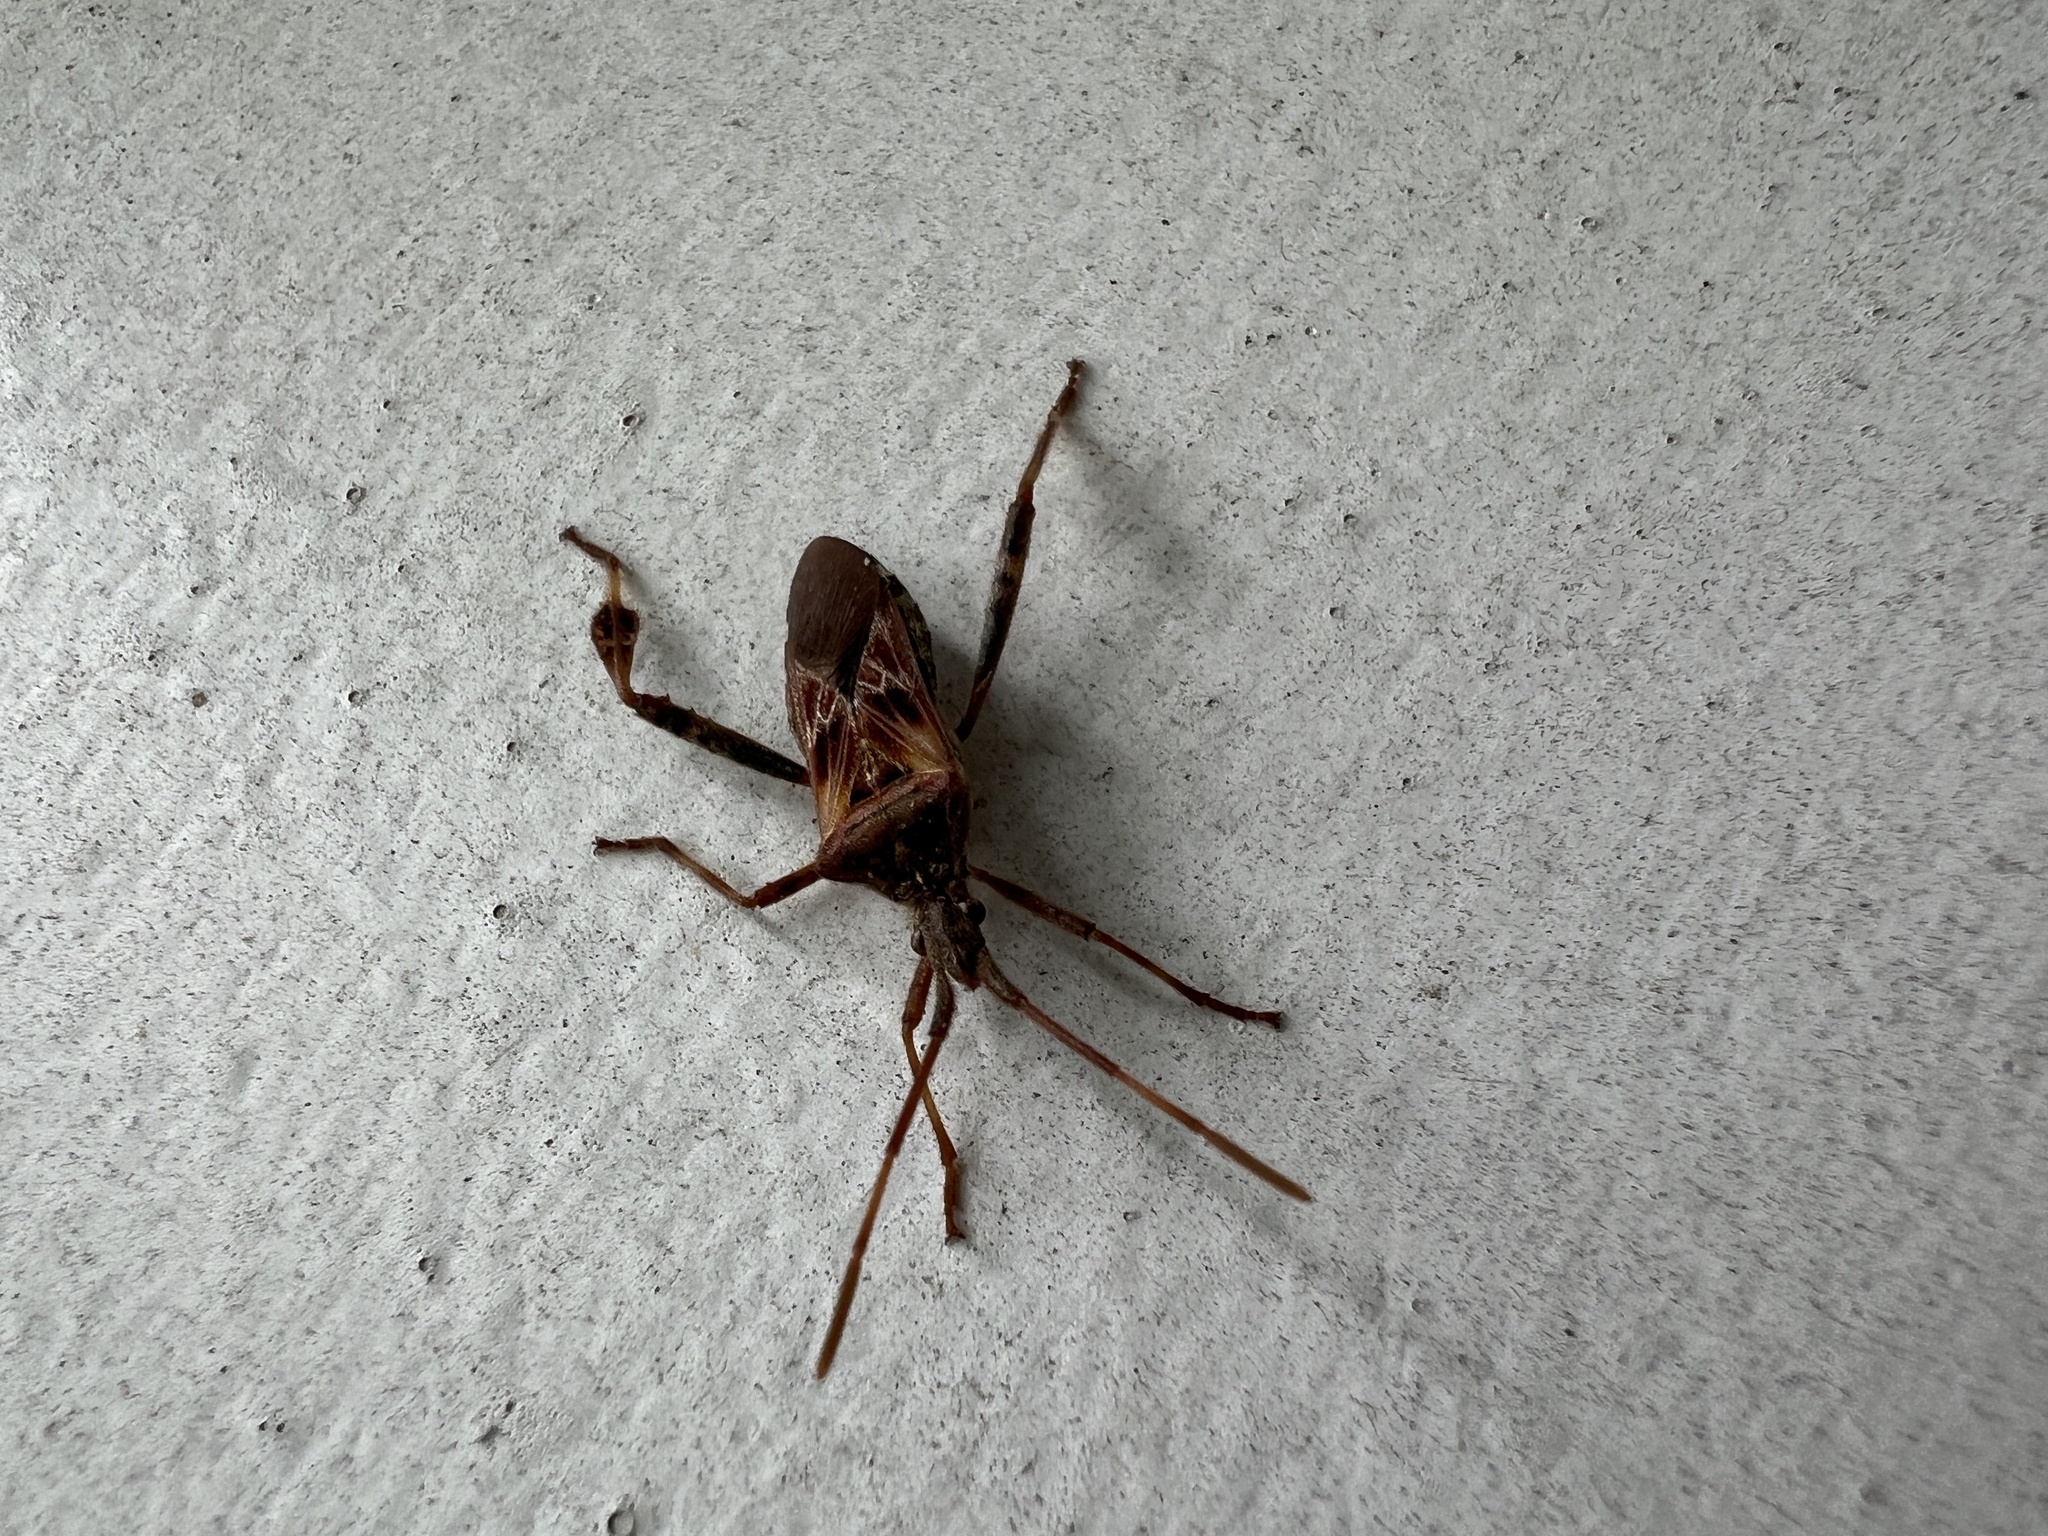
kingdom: Animalia
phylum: Arthropoda
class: Insecta
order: Hemiptera
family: Coreidae
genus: Leptoglossus
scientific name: Leptoglossus occidentalis
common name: Western conifer-seed bug
